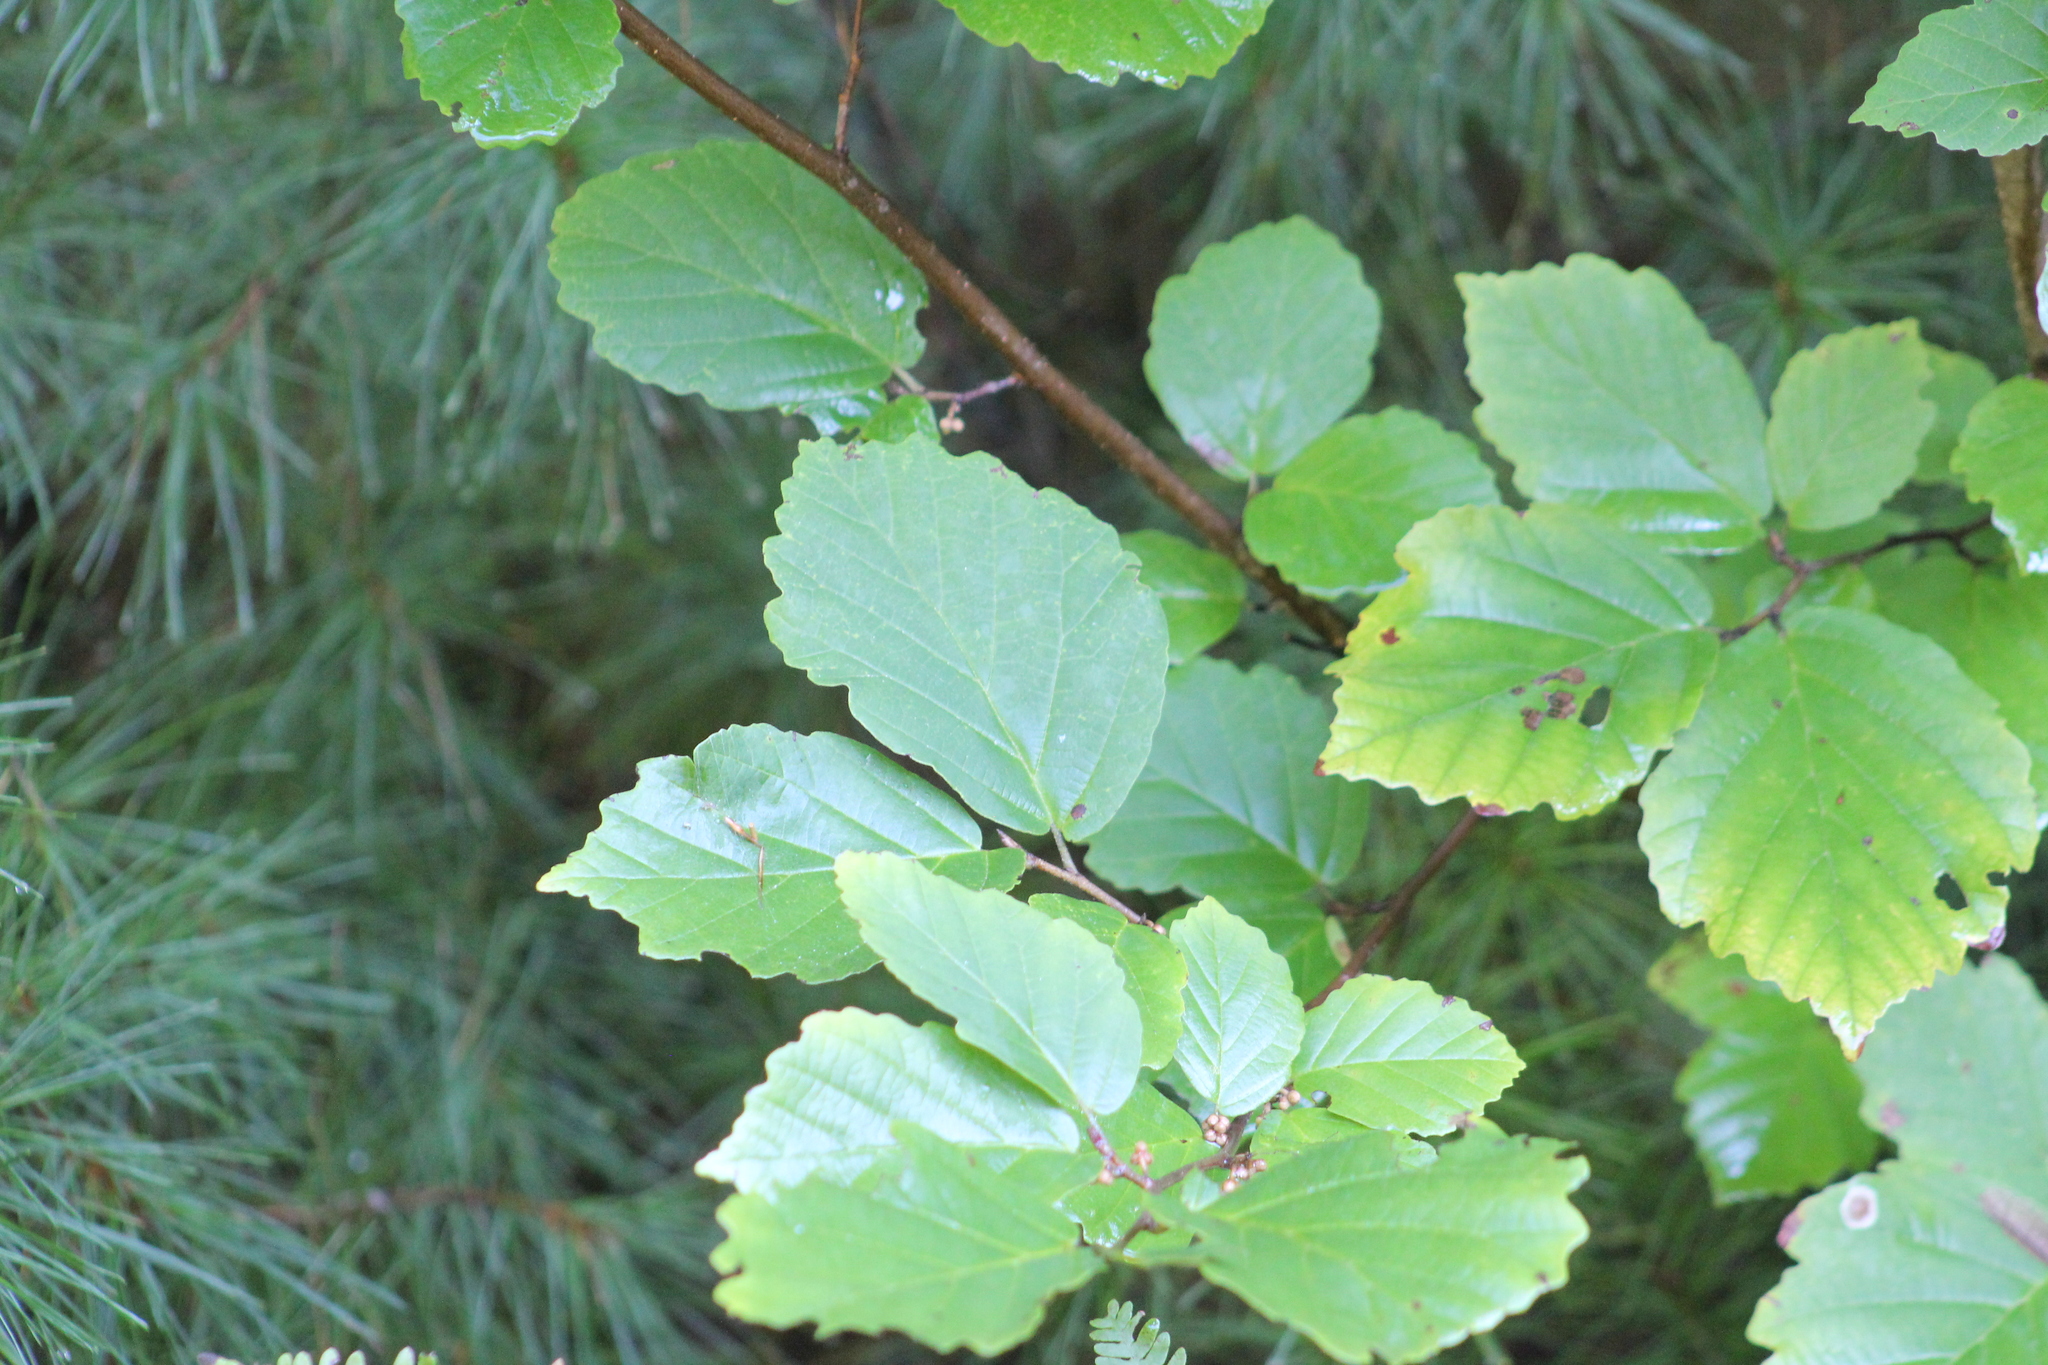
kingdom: Plantae
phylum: Tracheophyta
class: Magnoliopsida
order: Saxifragales
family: Hamamelidaceae
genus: Hamamelis
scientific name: Hamamelis virginiana
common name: Witch-hazel
